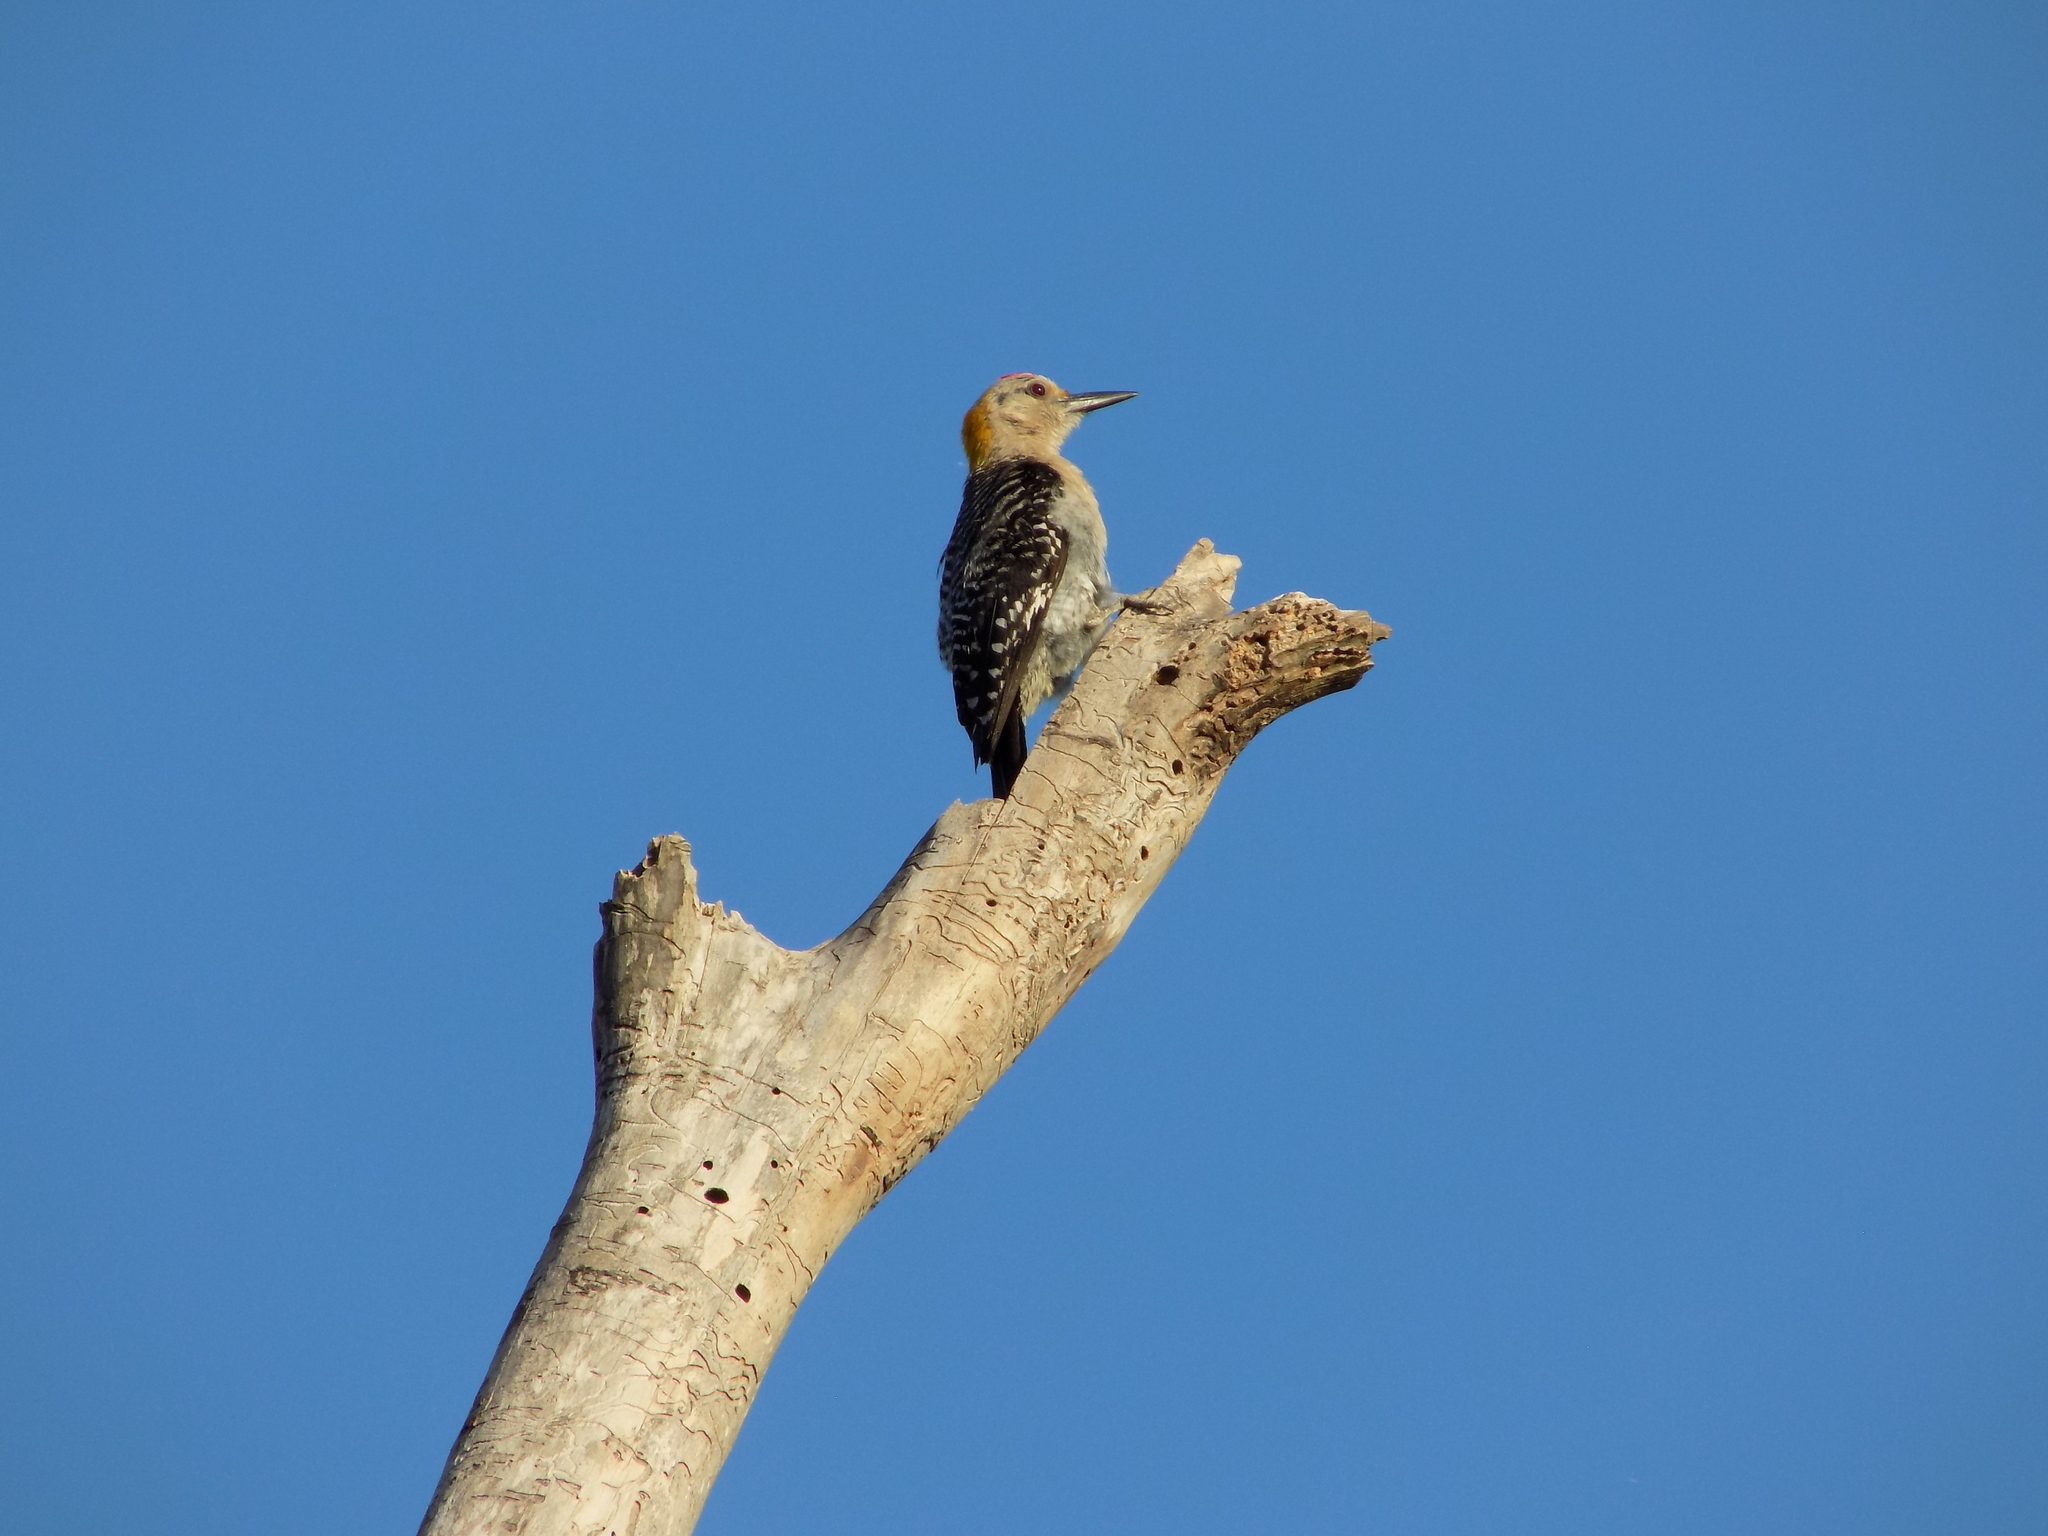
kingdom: Animalia
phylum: Chordata
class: Aves
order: Piciformes
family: Picidae
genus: Melanerpes
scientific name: Melanerpes aurifrons
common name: Golden-fronted woodpecker
